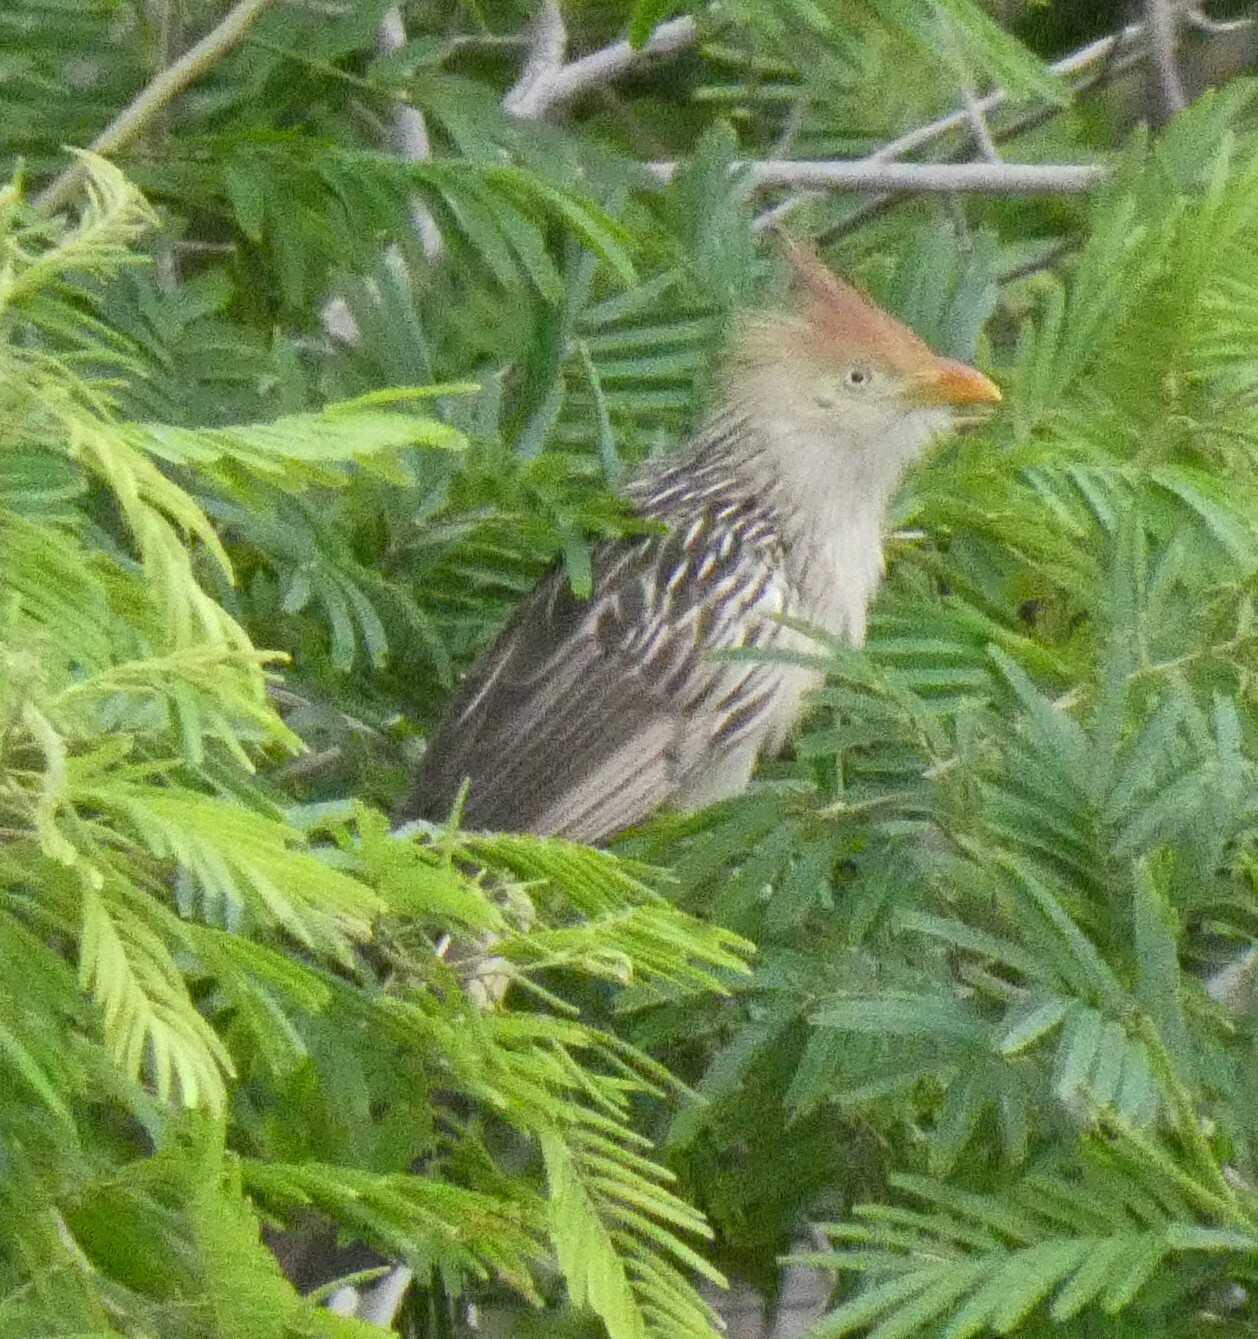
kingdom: Animalia
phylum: Chordata
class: Aves
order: Cuculiformes
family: Cuculidae
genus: Guira
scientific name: Guira guira
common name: Guira cuckoo
